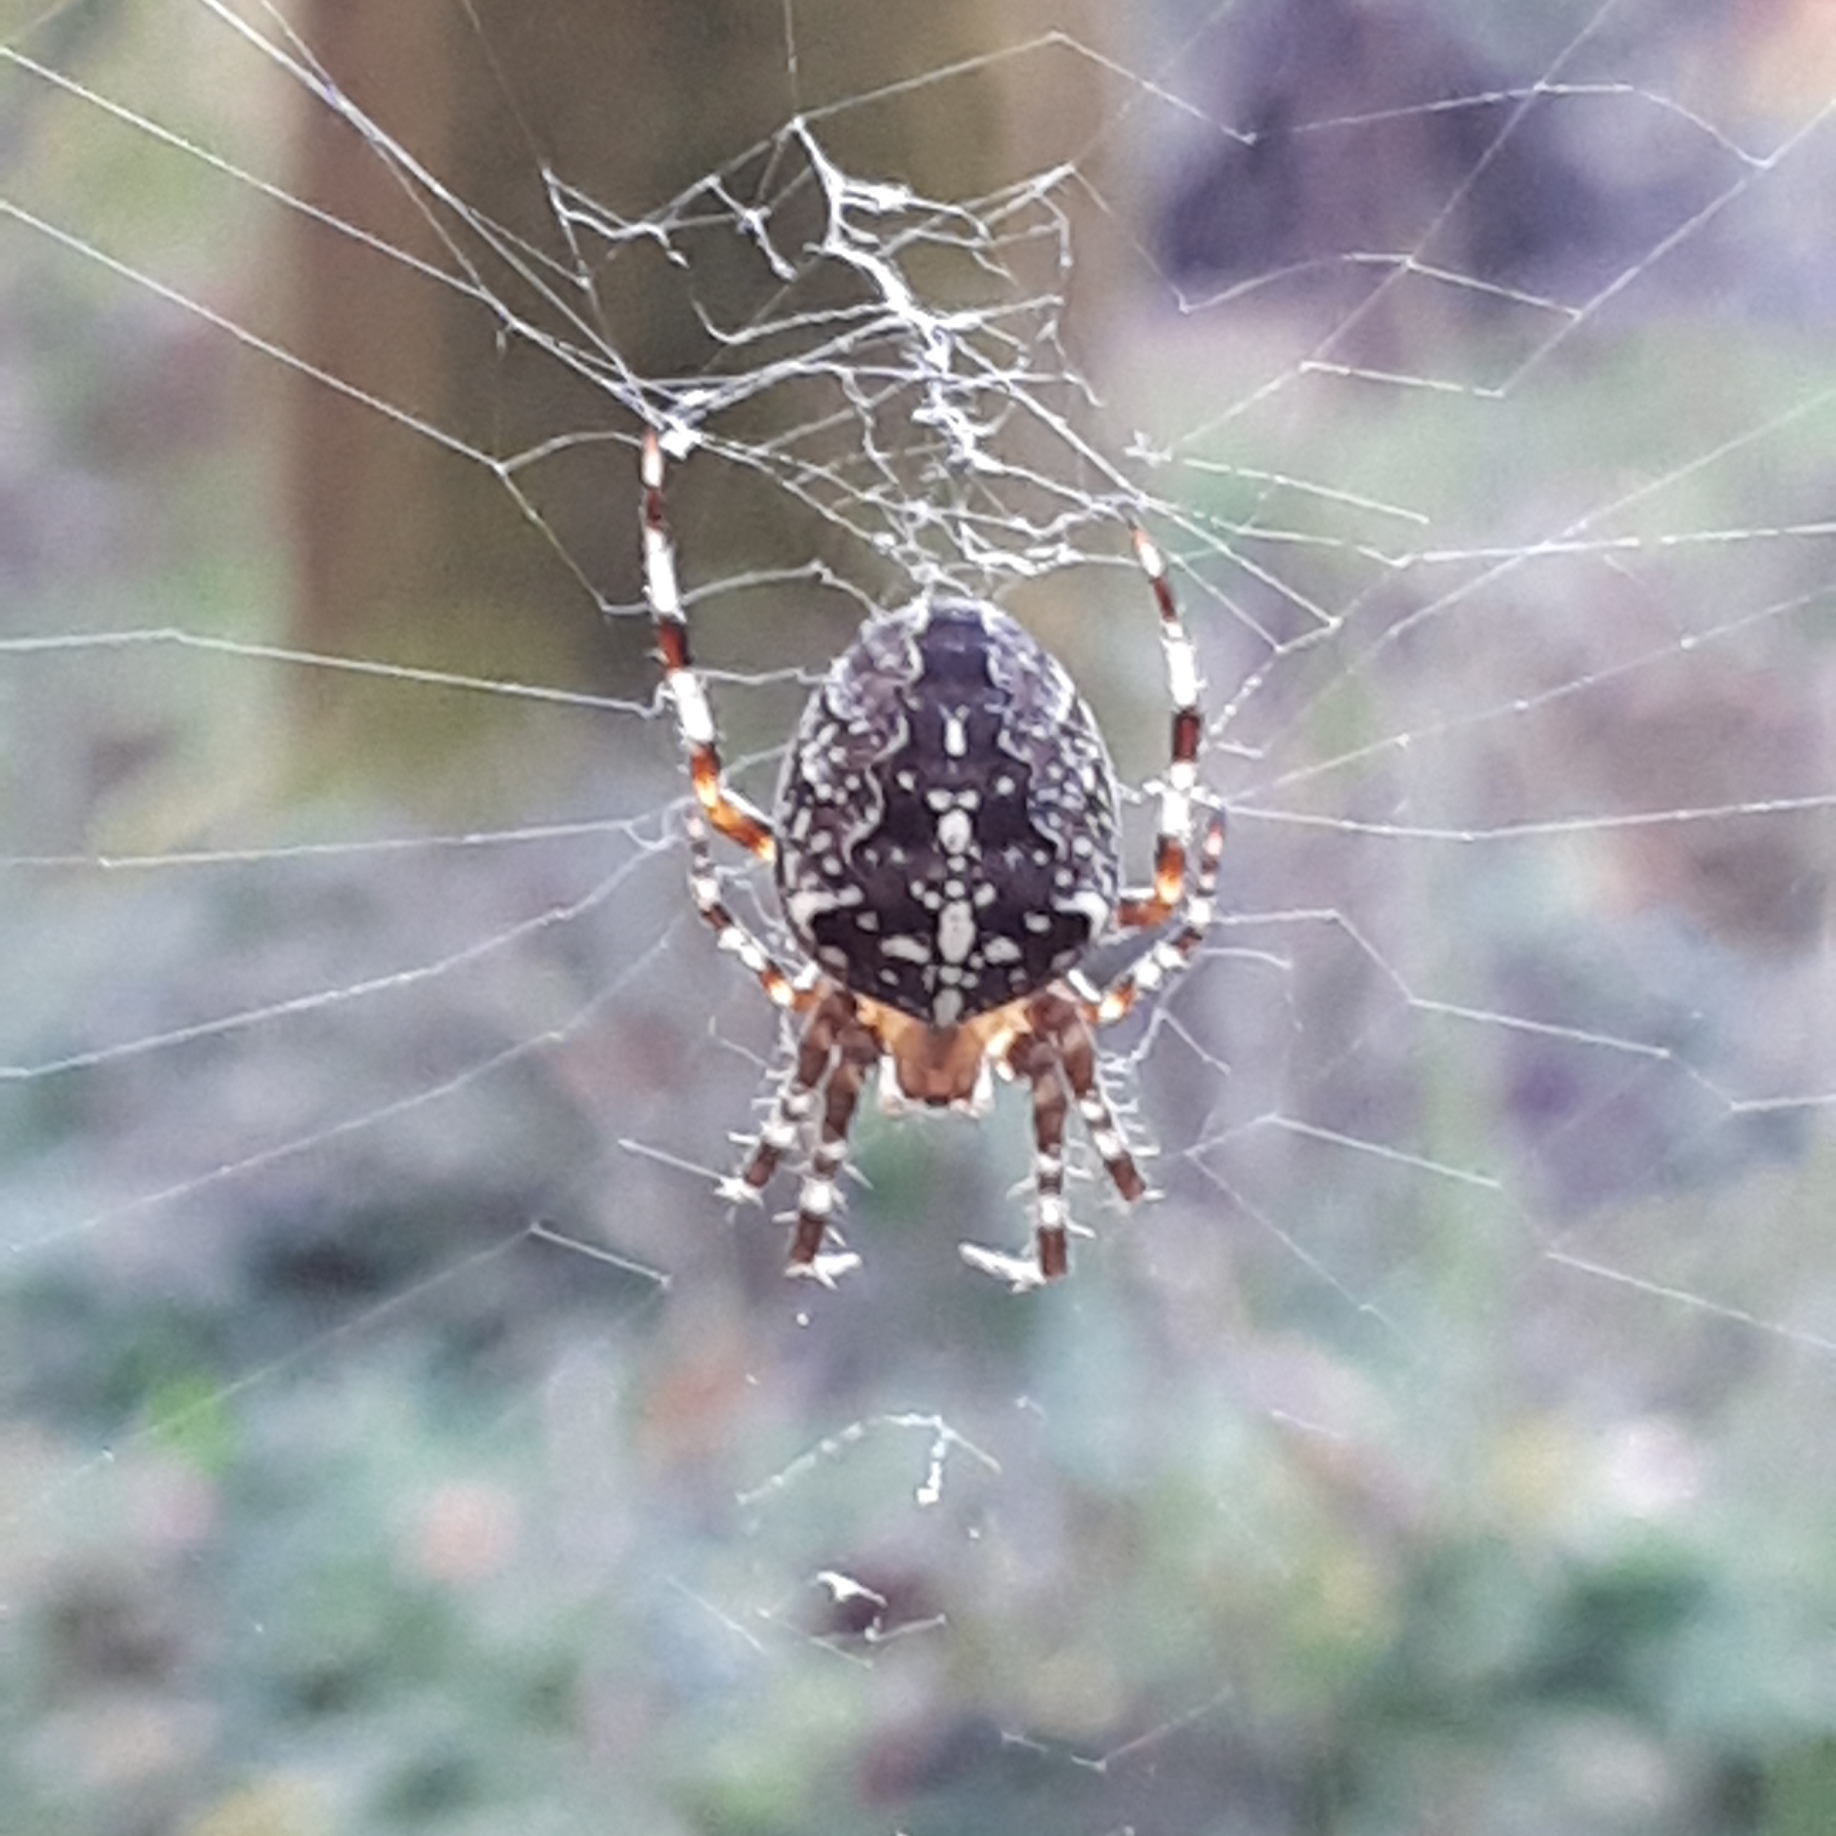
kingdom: Animalia
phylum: Arthropoda
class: Arachnida
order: Araneae
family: Araneidae
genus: Araneus
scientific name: Araneus diadematus
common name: Cross orbweaver
